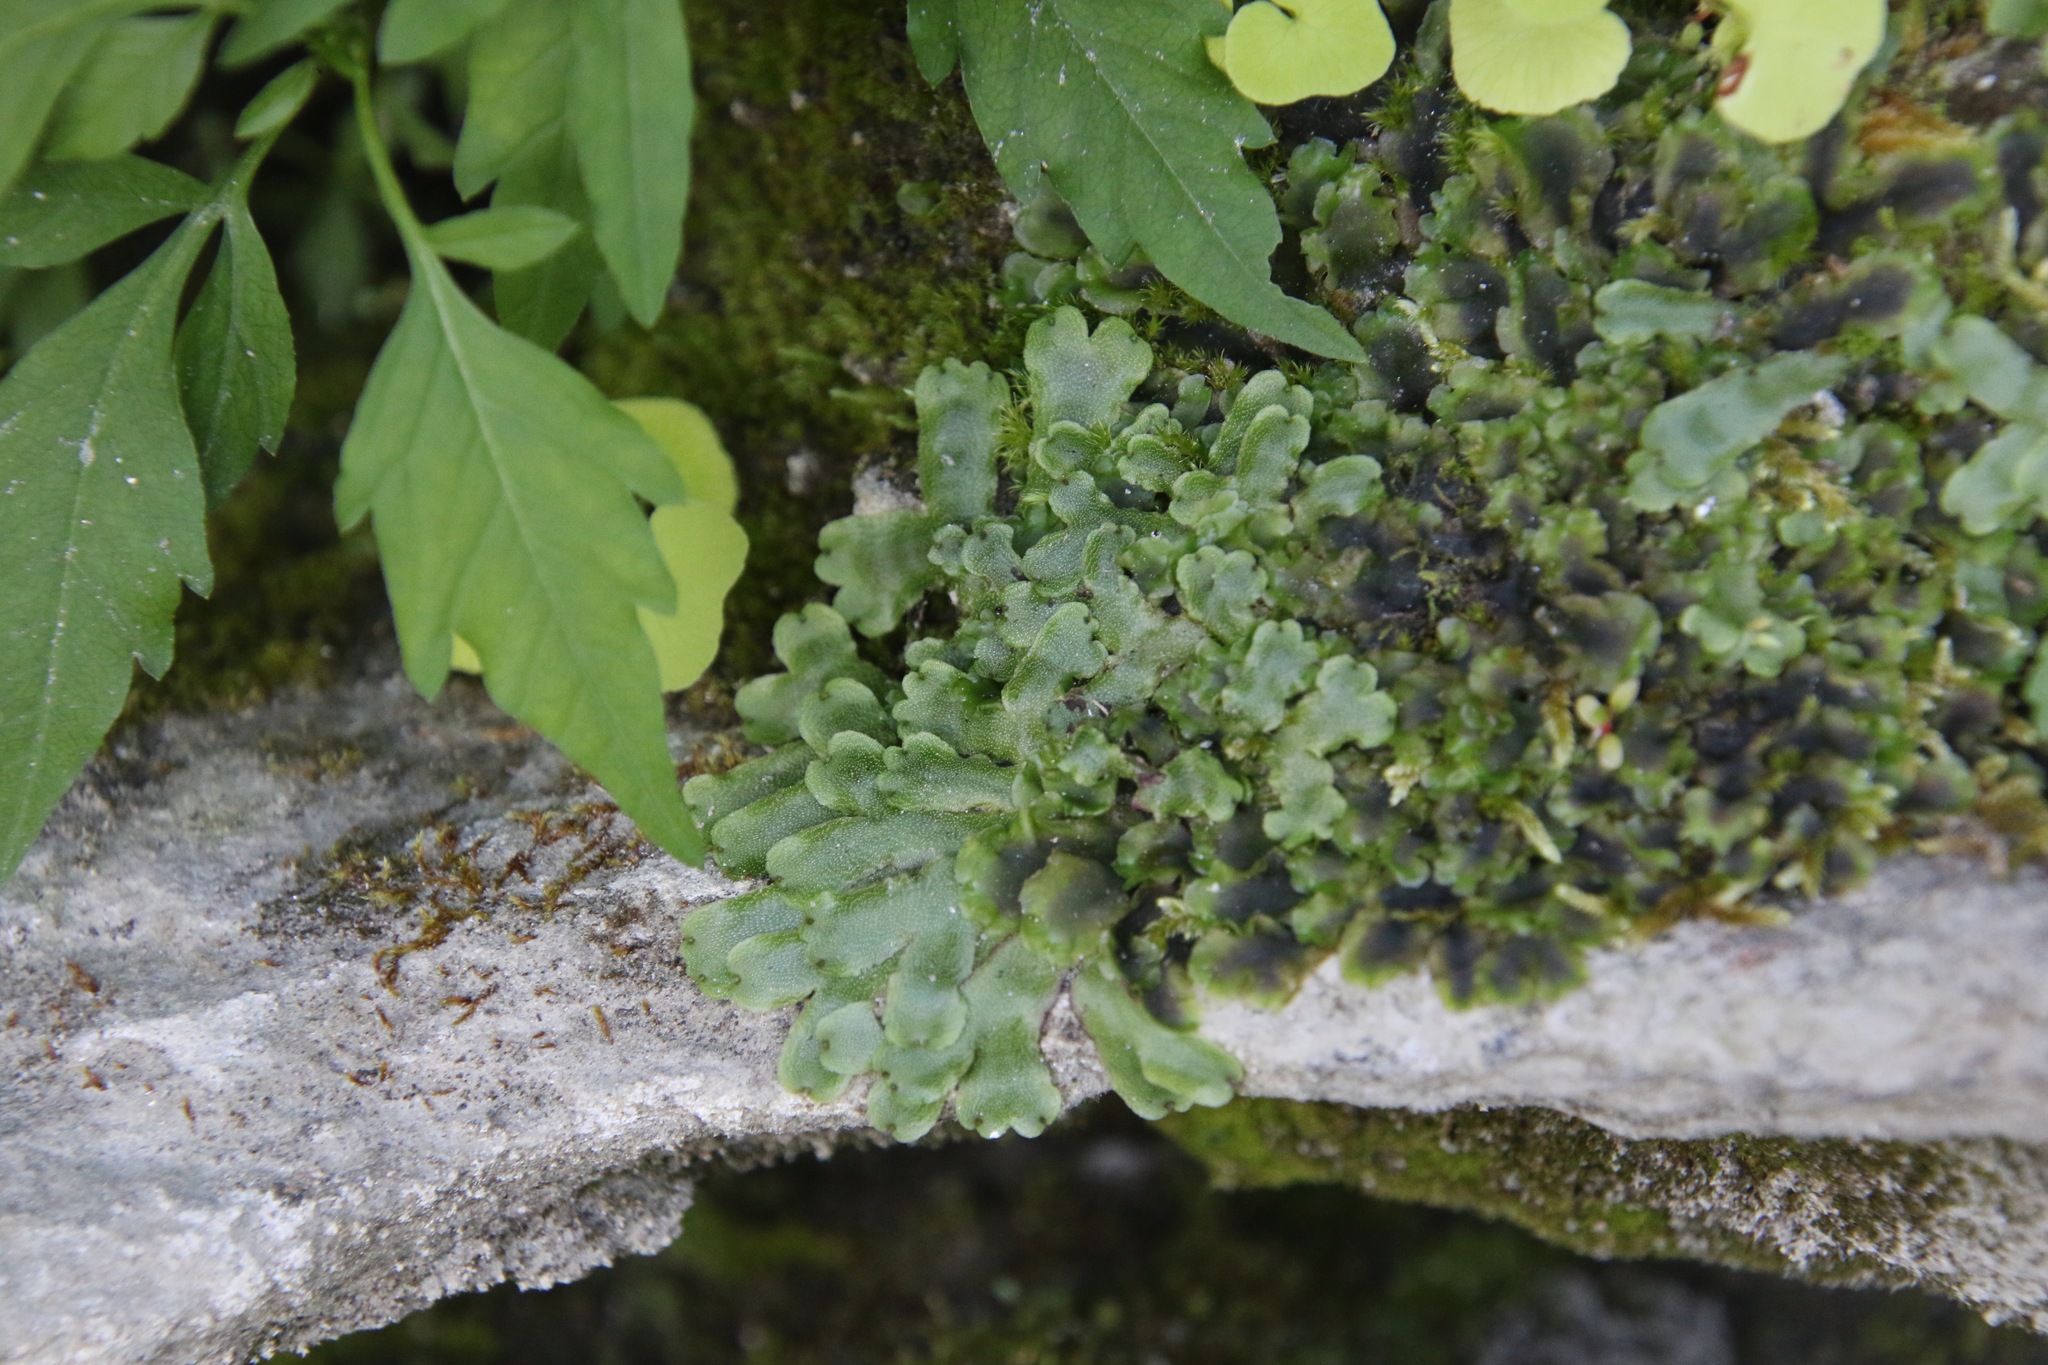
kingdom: Plantae
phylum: Marchantiophyta
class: Marchantiopsida
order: Marchantiales
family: Marchantiaceae
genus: Marchantia
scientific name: Marchantia quadrata
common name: Narrow mushroom-headed liverwort
